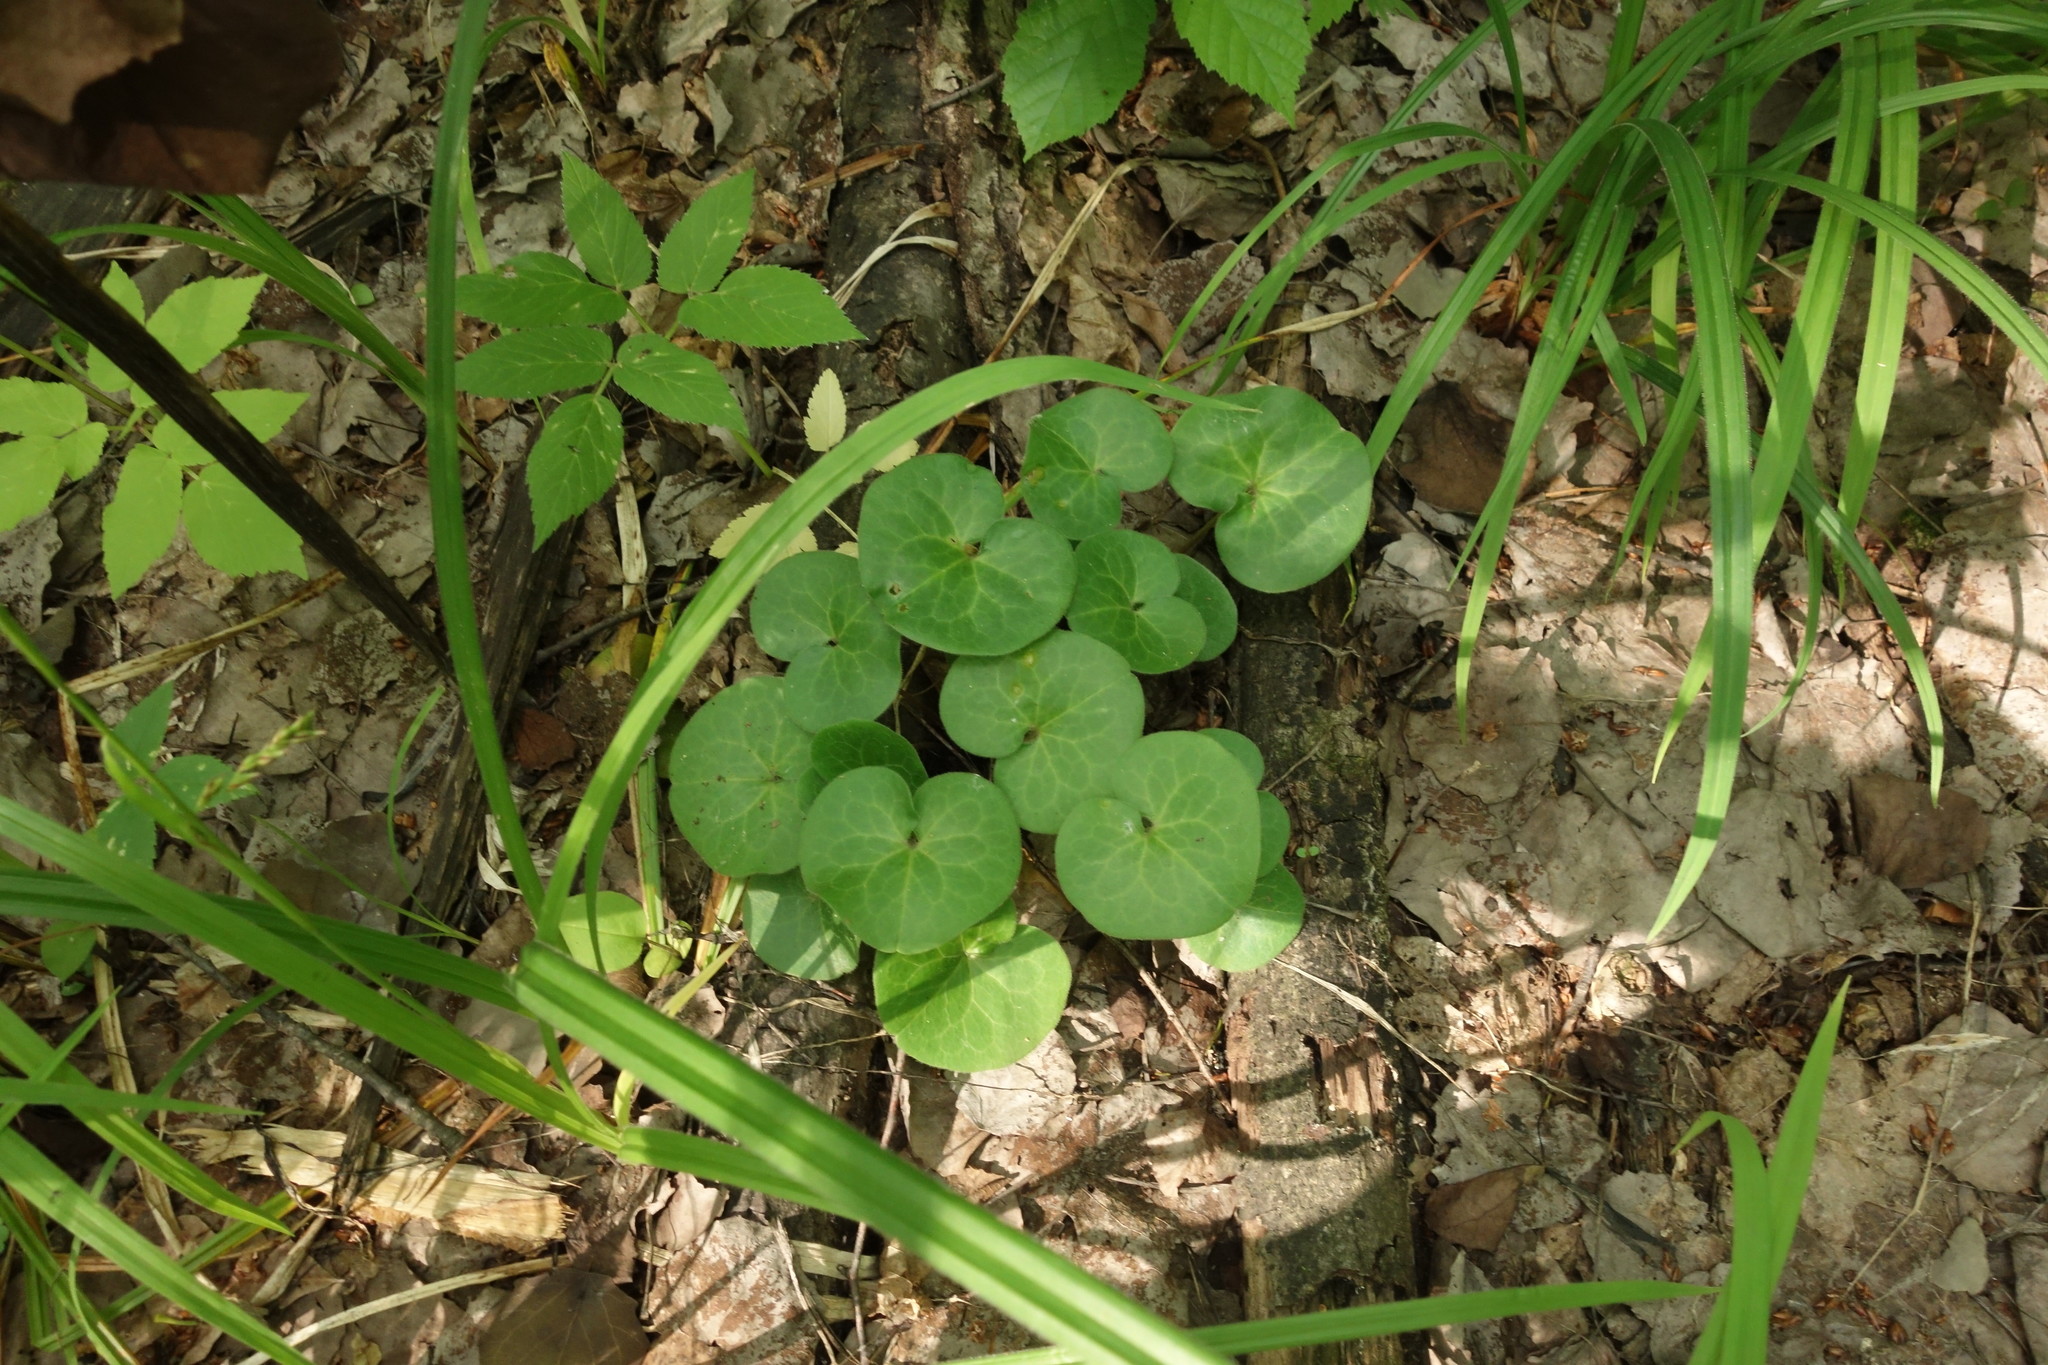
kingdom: Plantae
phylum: Tracheophyta
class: Magnoliopsida
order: Piperales
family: Aristolochiaceae
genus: Asarum
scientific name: Asarum europaeum
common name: Asarabacca
